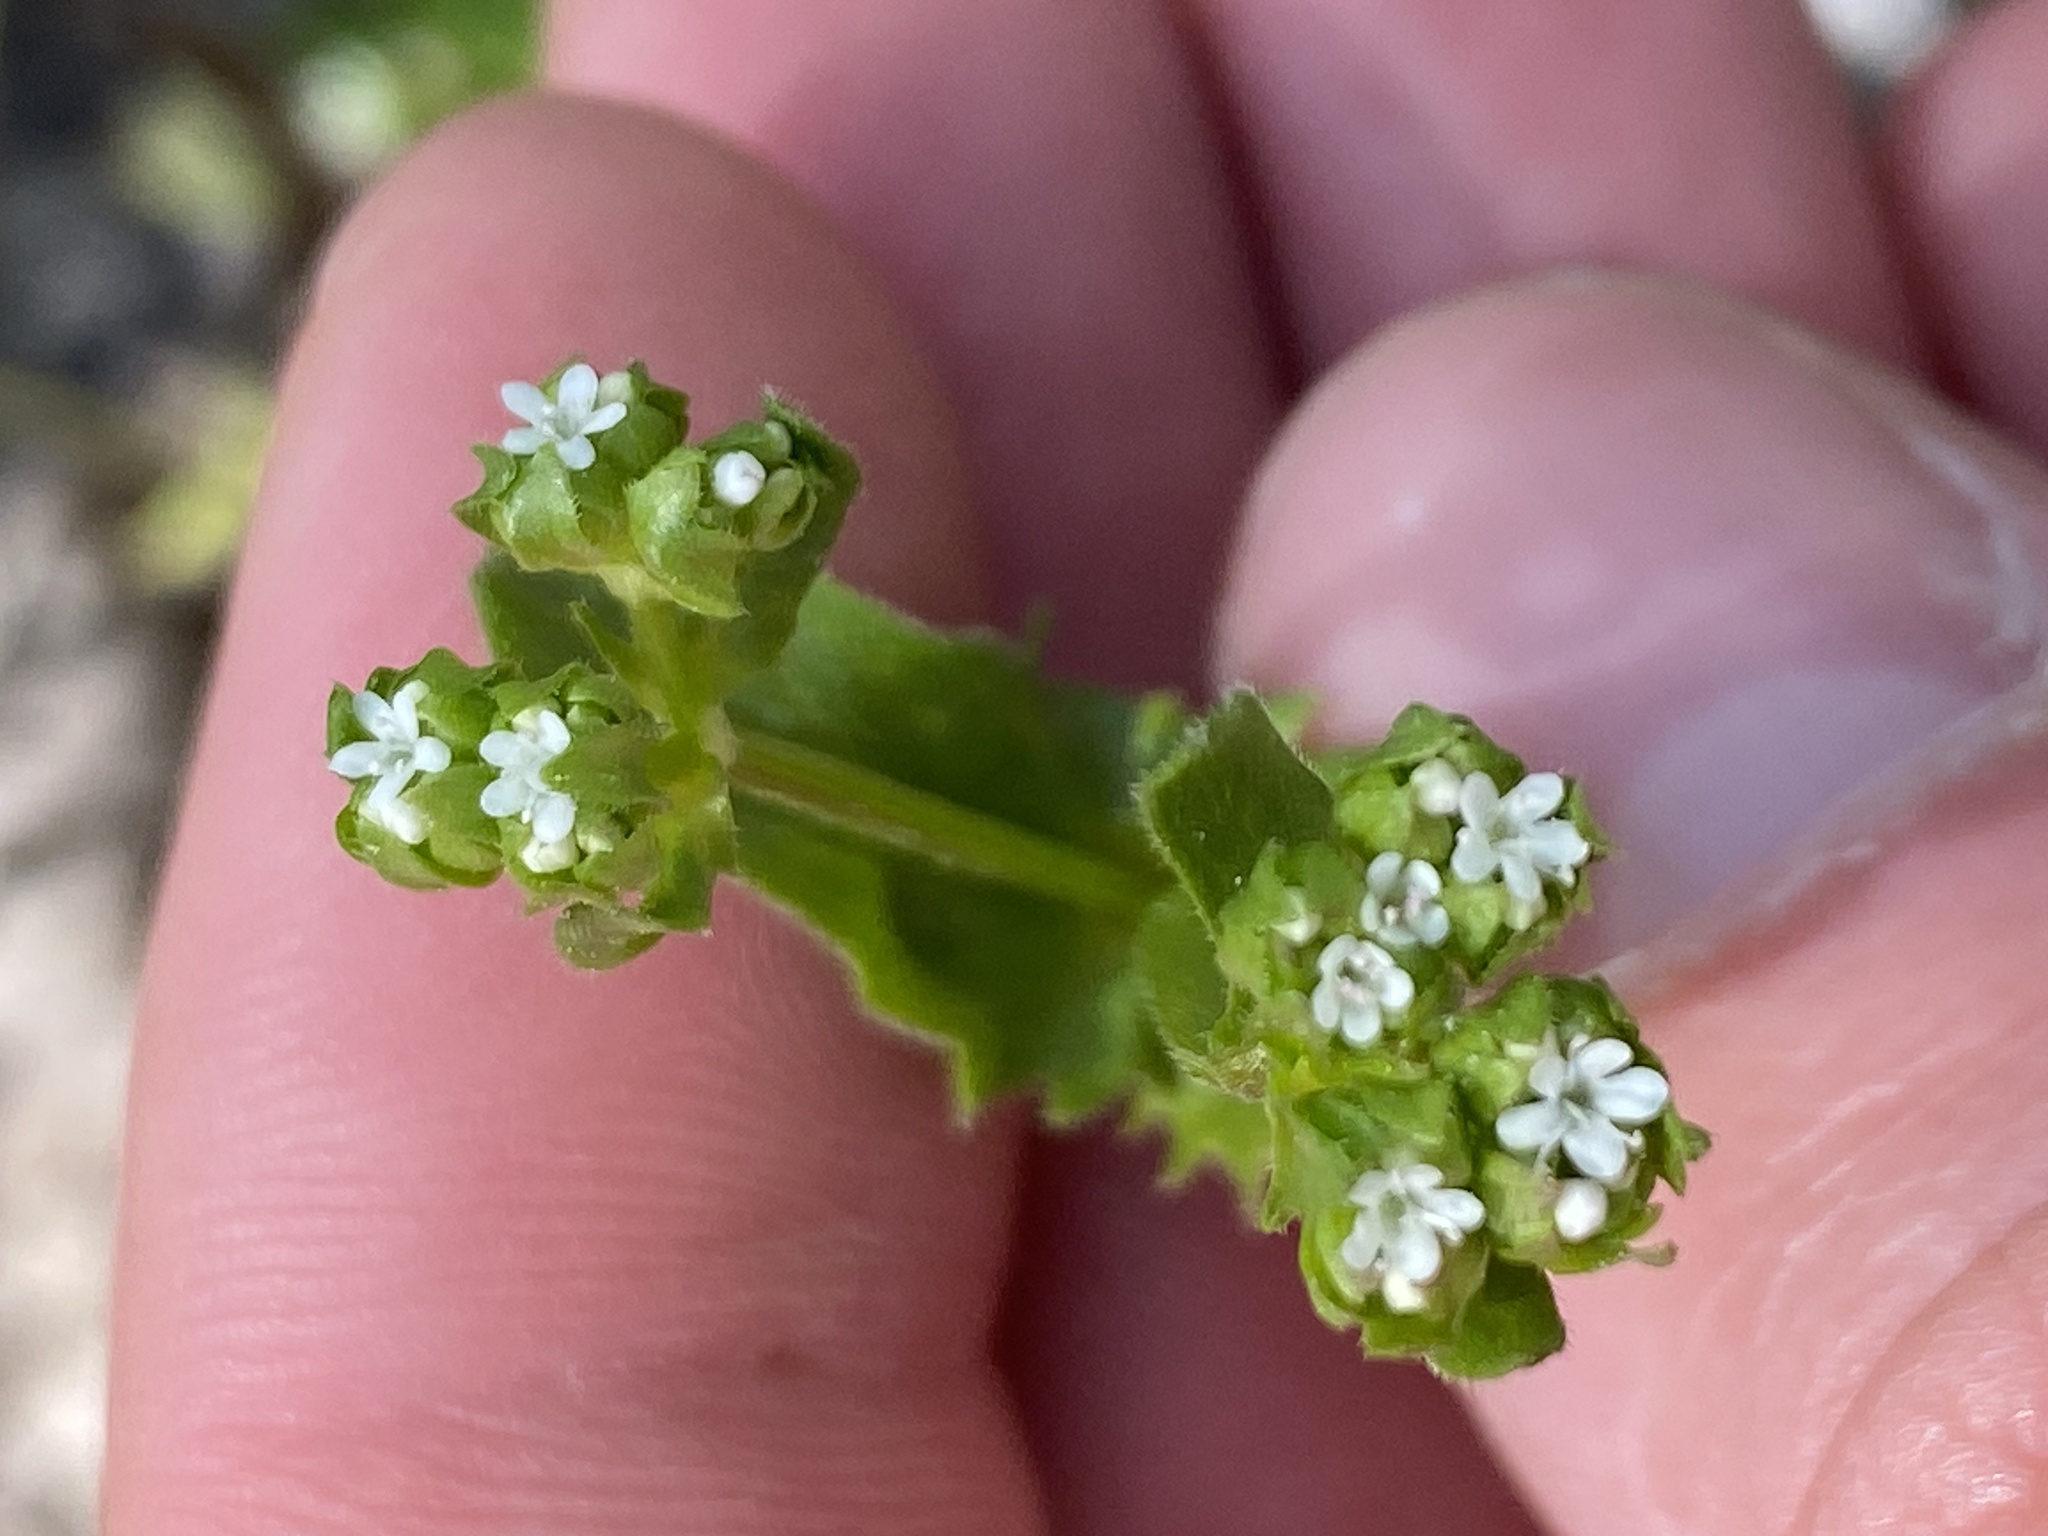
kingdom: Plantae
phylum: Tracheophyta
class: Magnoliopsida
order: Dipsacales
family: Caprifoliaceae
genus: Valerianella
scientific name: Valerianella radiata
